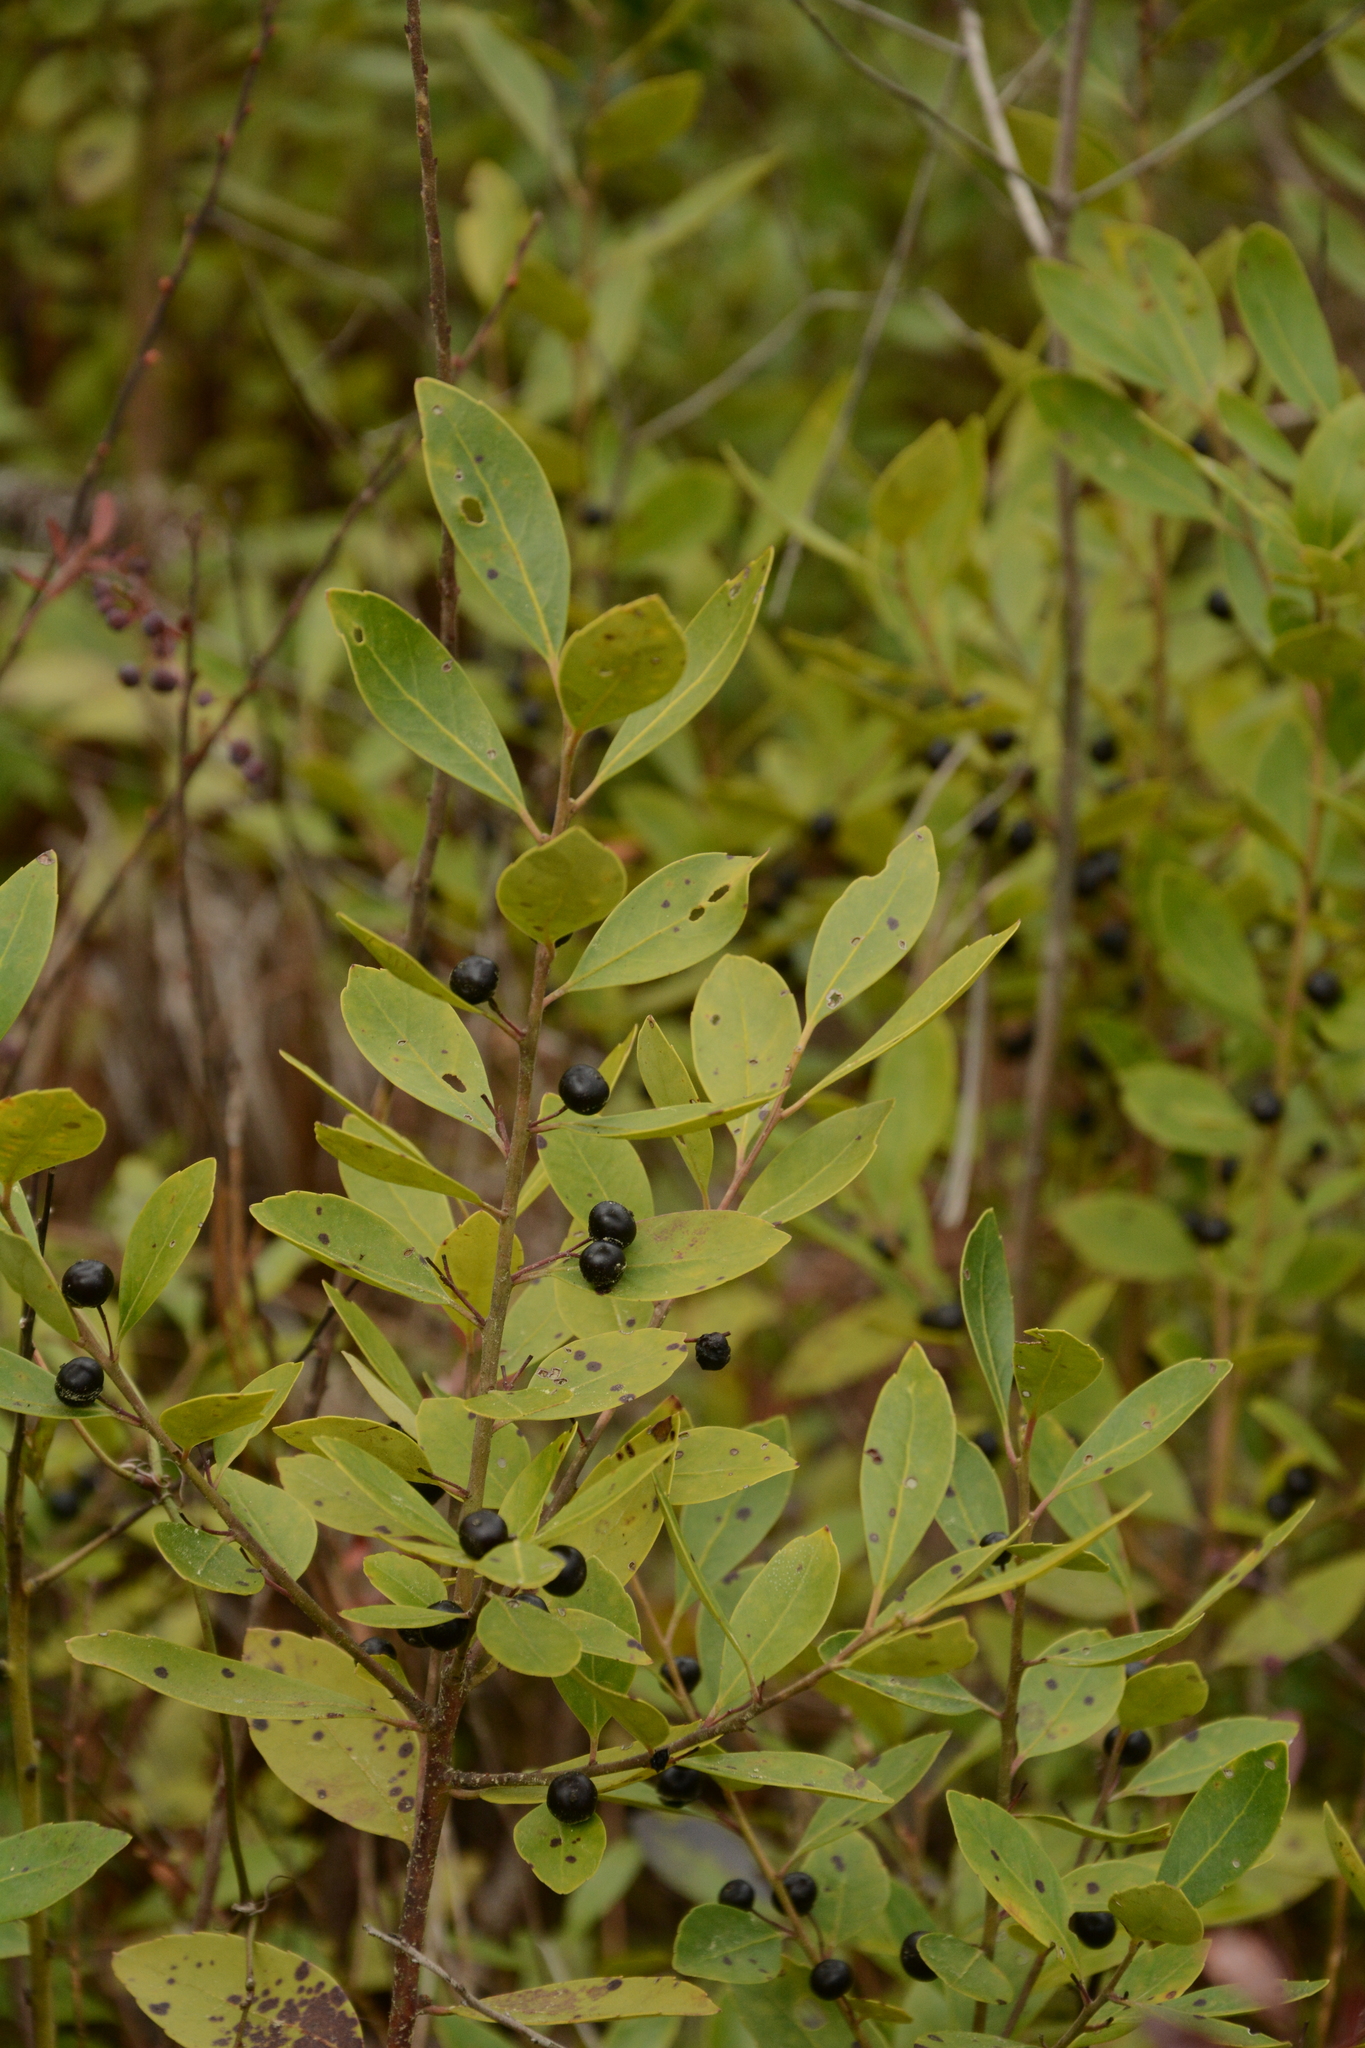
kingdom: Plantae
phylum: Tracheophyta
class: Magnoliopsida
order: Aquifoliales
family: Aquifoliaceae
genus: Ilex
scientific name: Ilex glabra
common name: Bitter gallberry
